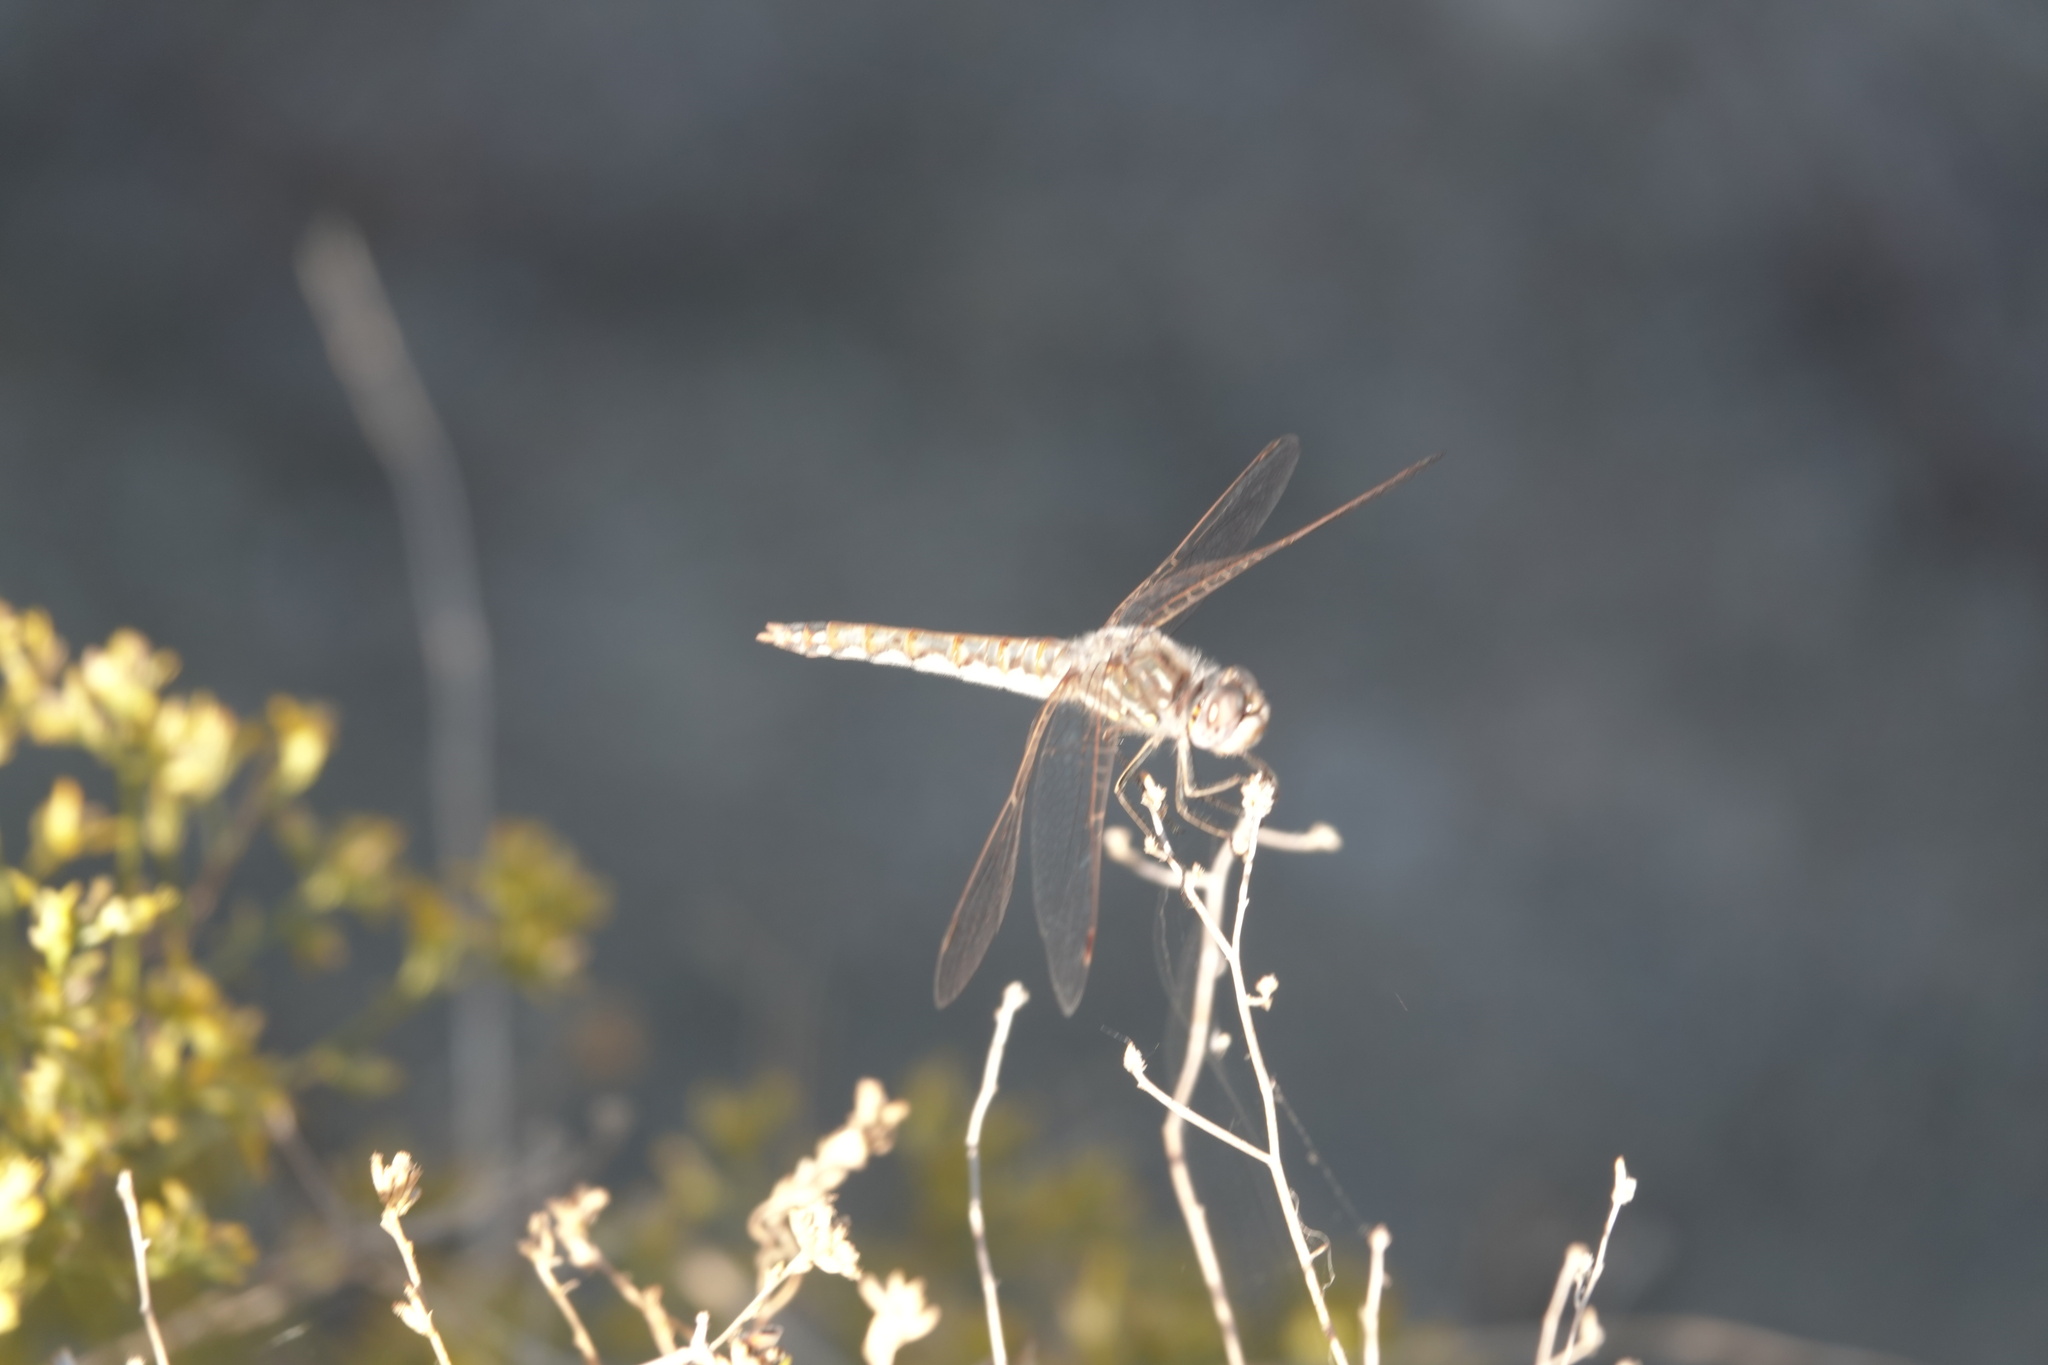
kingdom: Animalia
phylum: Arthropoda
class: Insecta
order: Odonata
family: Libellulidae
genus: Sympetrum
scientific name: Sympetrum corruptum
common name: Variegated meadowhawk
